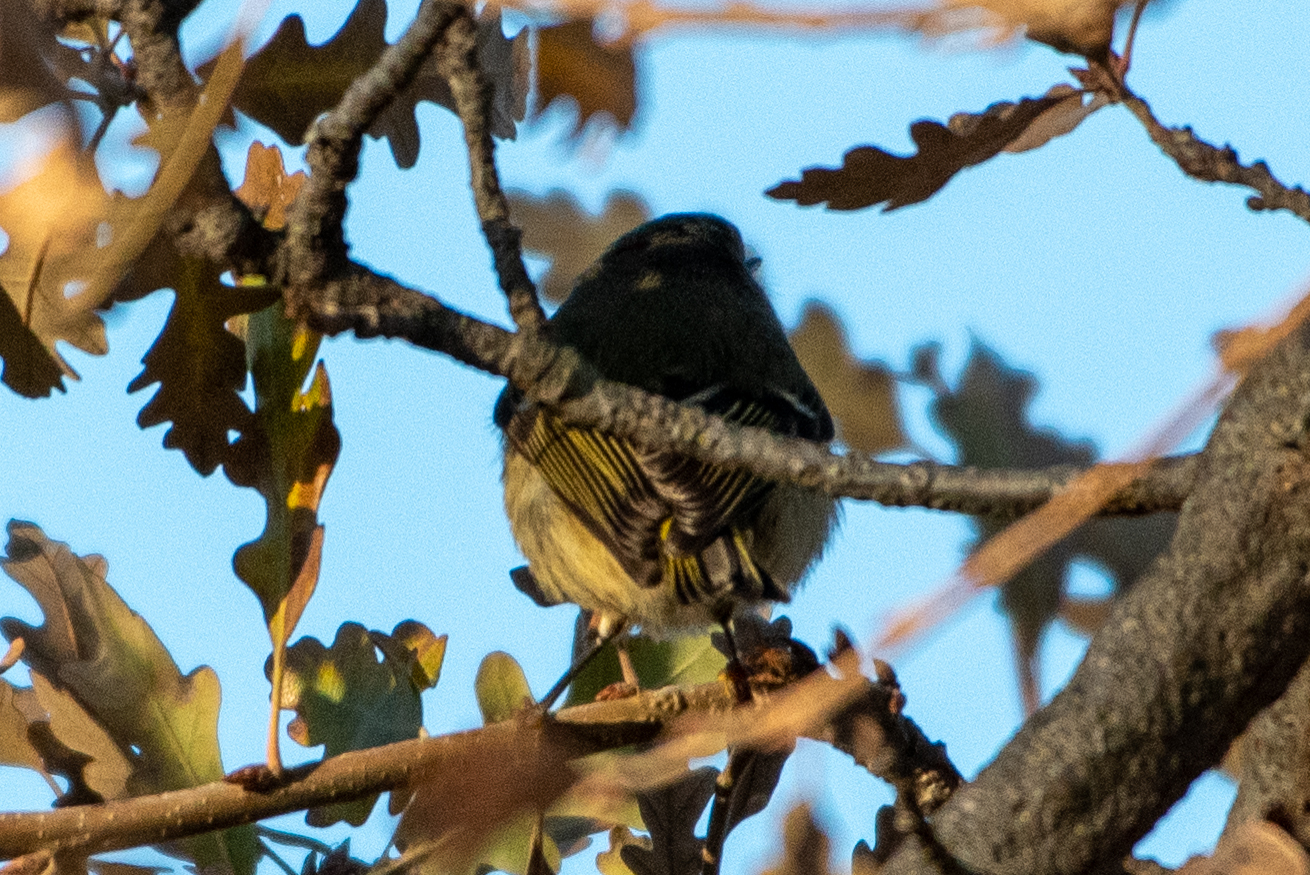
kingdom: Animalia
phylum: Chordata
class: Aves
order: Passeriformes
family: Regulidae
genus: Regulus
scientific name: Regulus calendula
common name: Ruby-crowned kinglet
